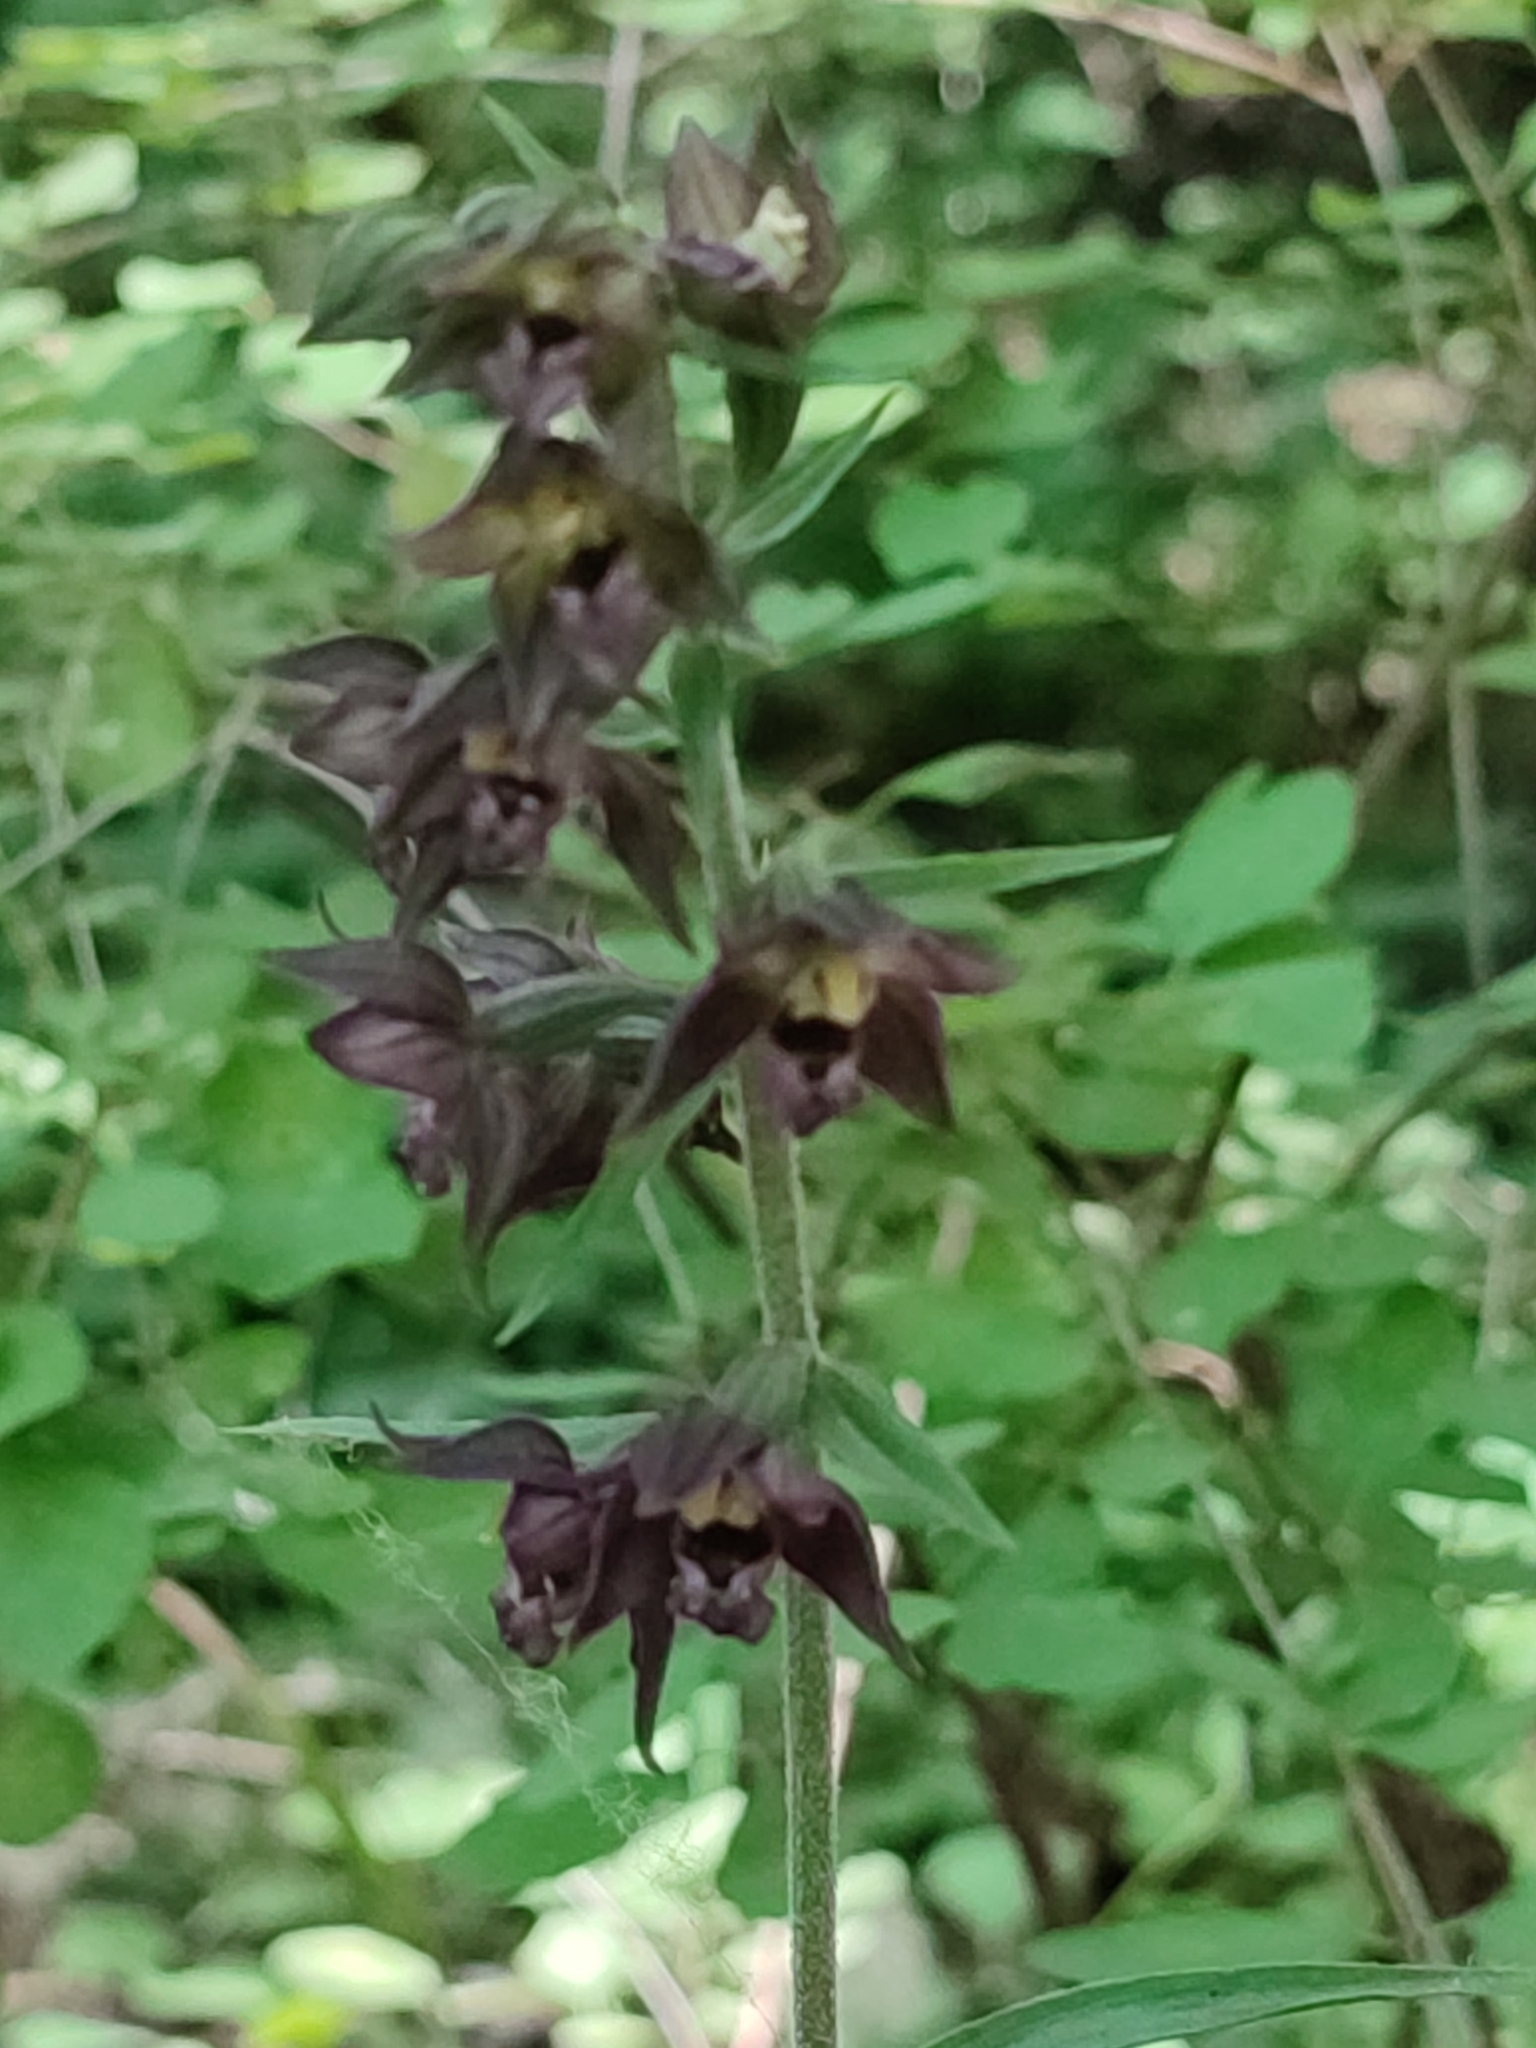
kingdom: Plantae
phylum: Tracheophyta
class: Liliopsida
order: Asparagales
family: Orchidaceae
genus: Epipactis
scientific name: Epipactis helleborine
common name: Broad-leaved helleborine
